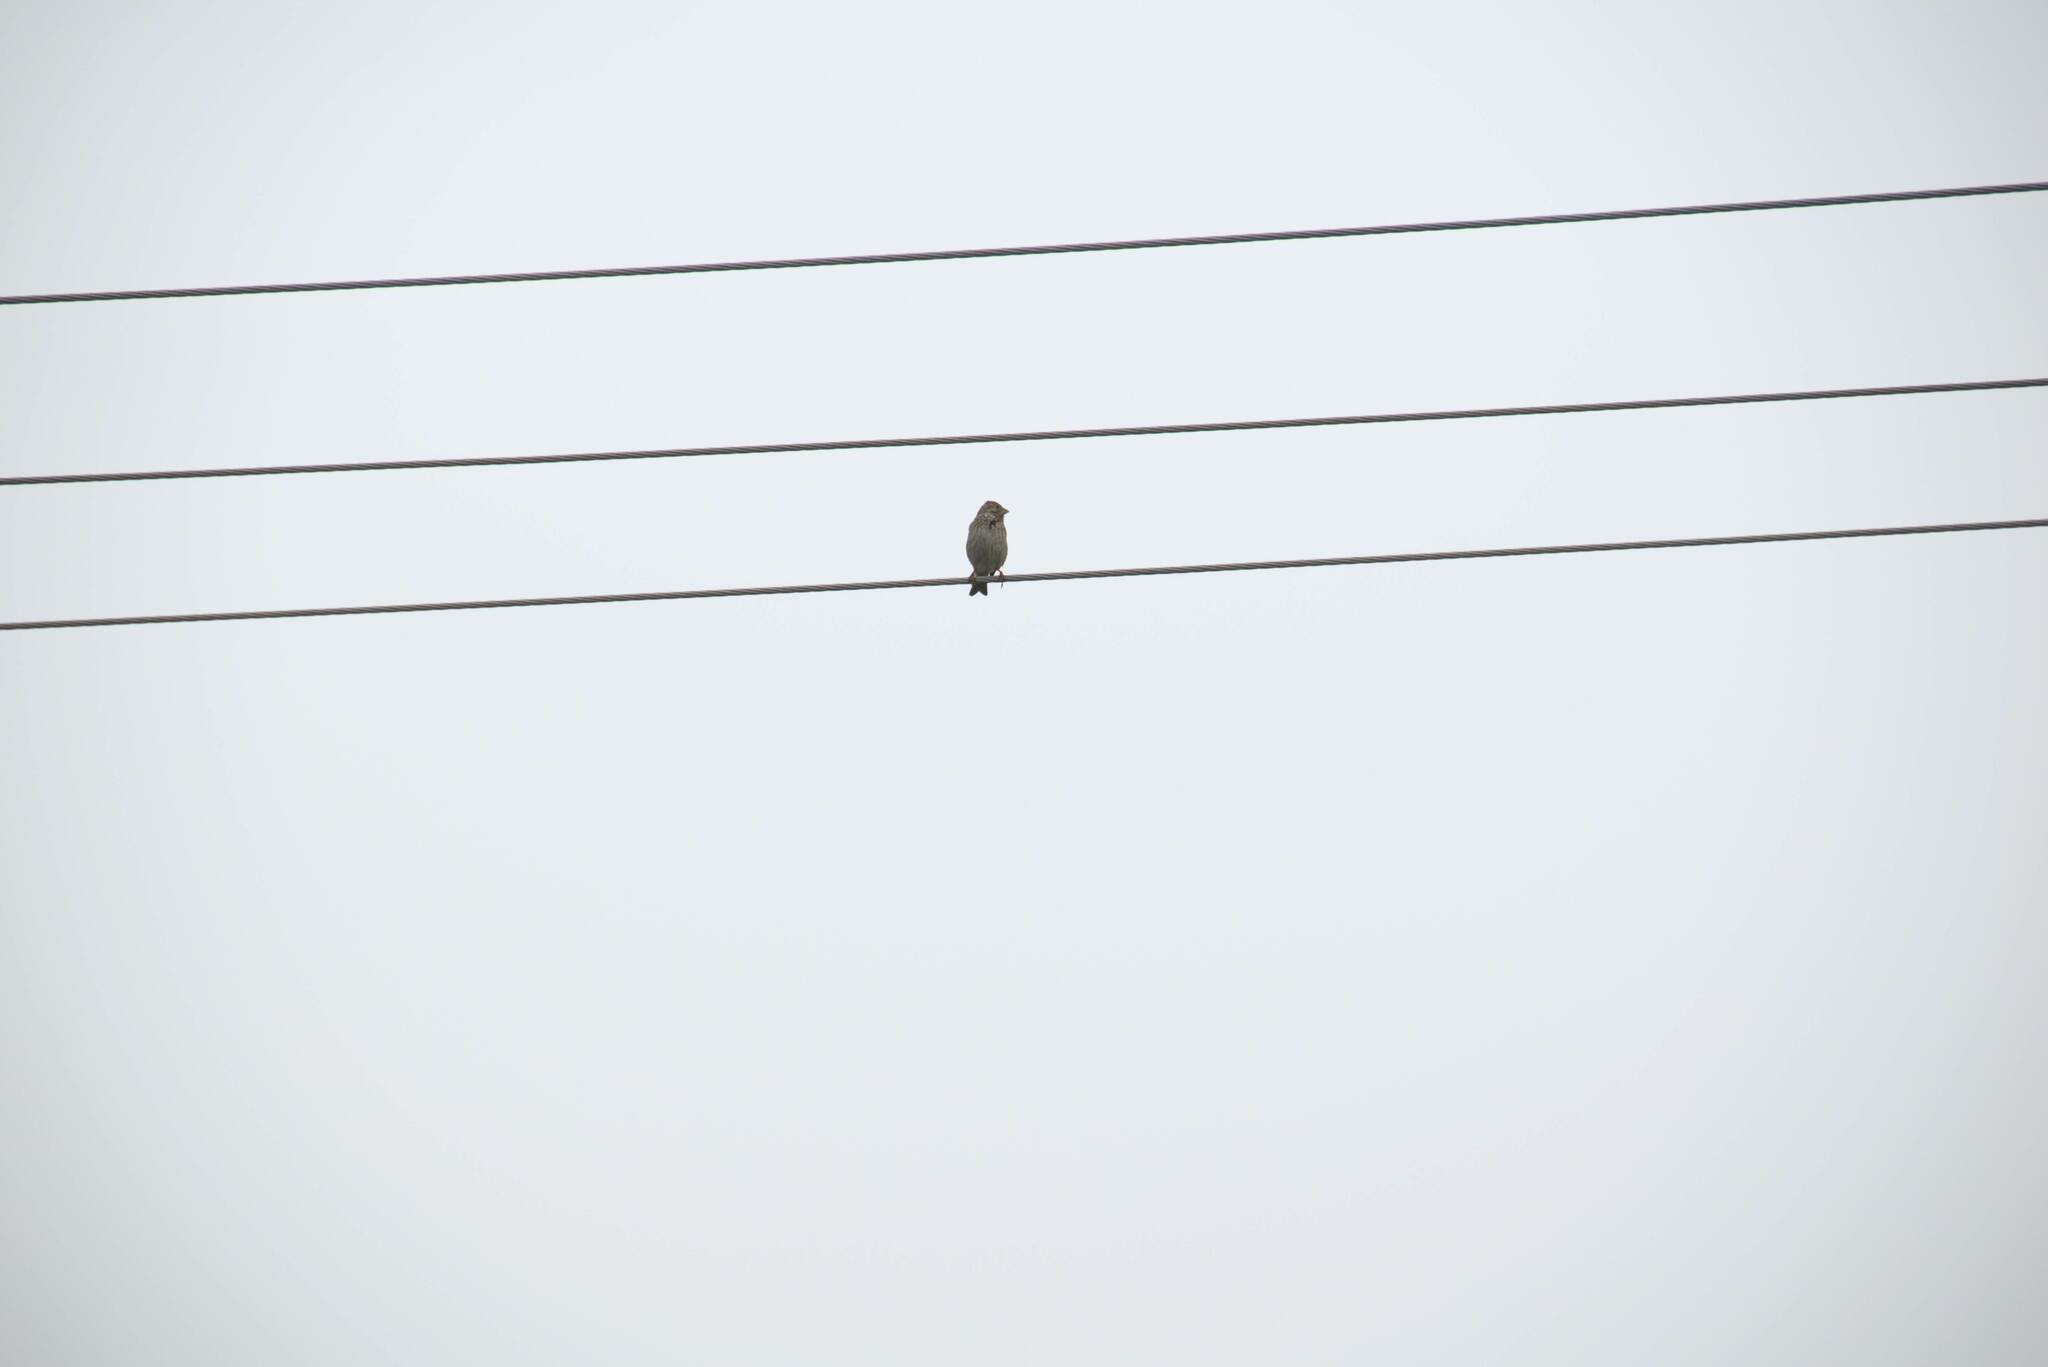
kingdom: Animalia
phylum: Chordata
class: Aves
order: Passeriformes
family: Emberizidae
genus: Emberiza
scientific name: Emberiza calandra
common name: Corn bunting
